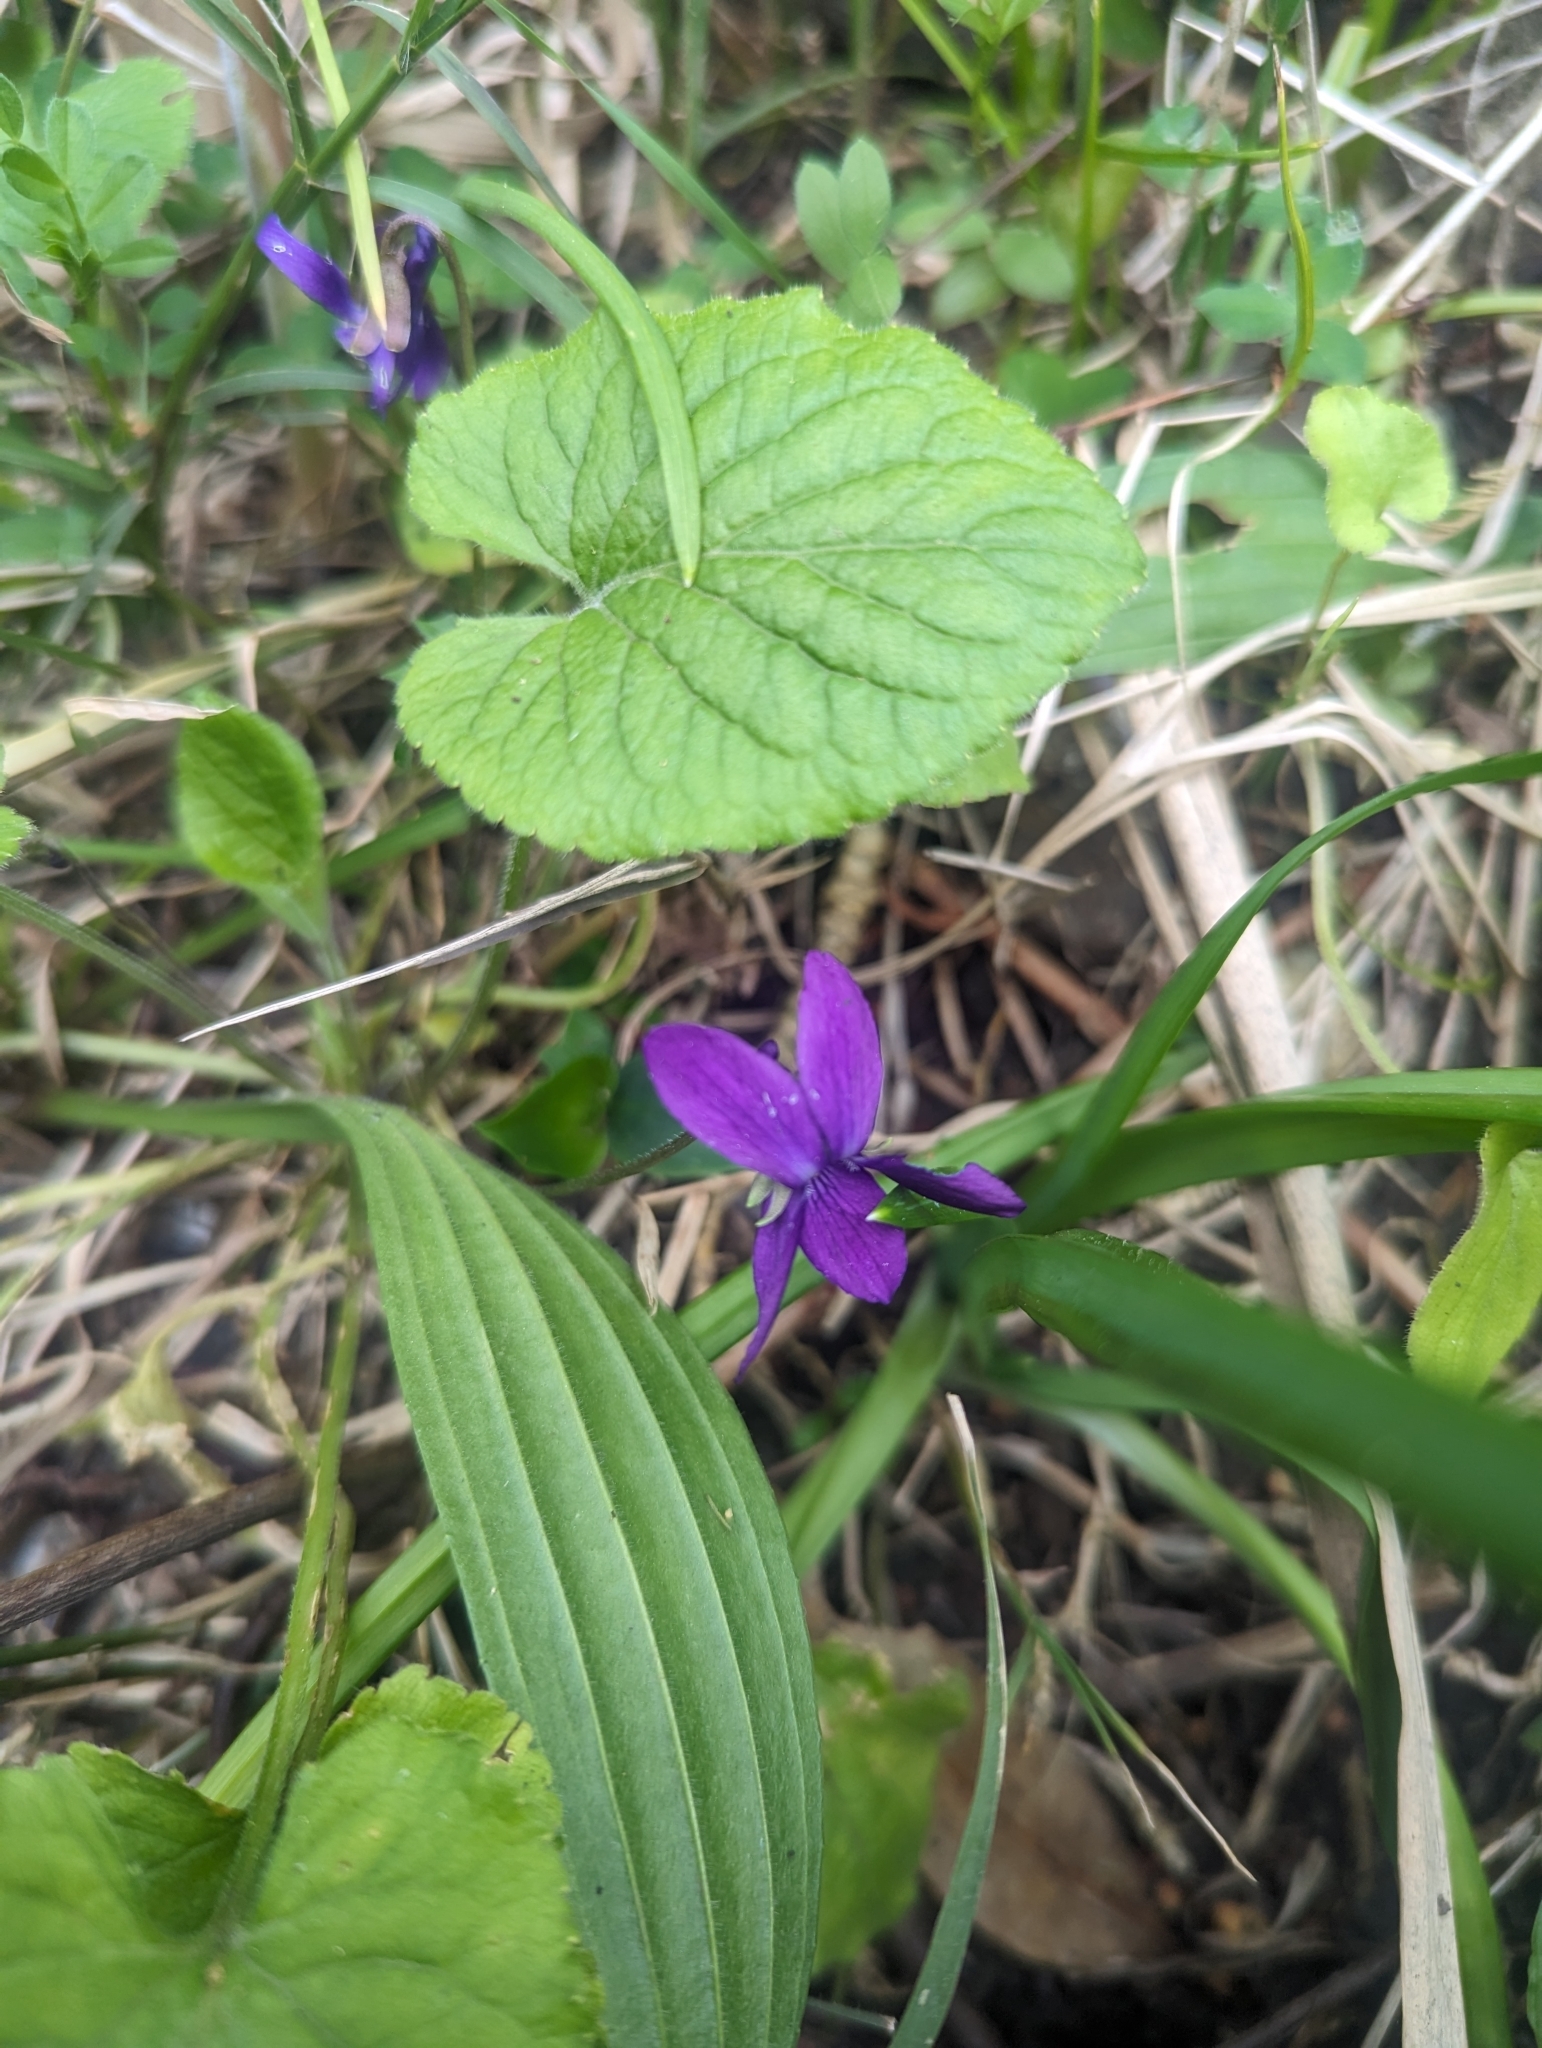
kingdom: Plantae
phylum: Tracheophyta
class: Magnoliopsida
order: Malpighiales
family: Violaceae
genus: Viola
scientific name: Viola odorata
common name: Sweet violet
